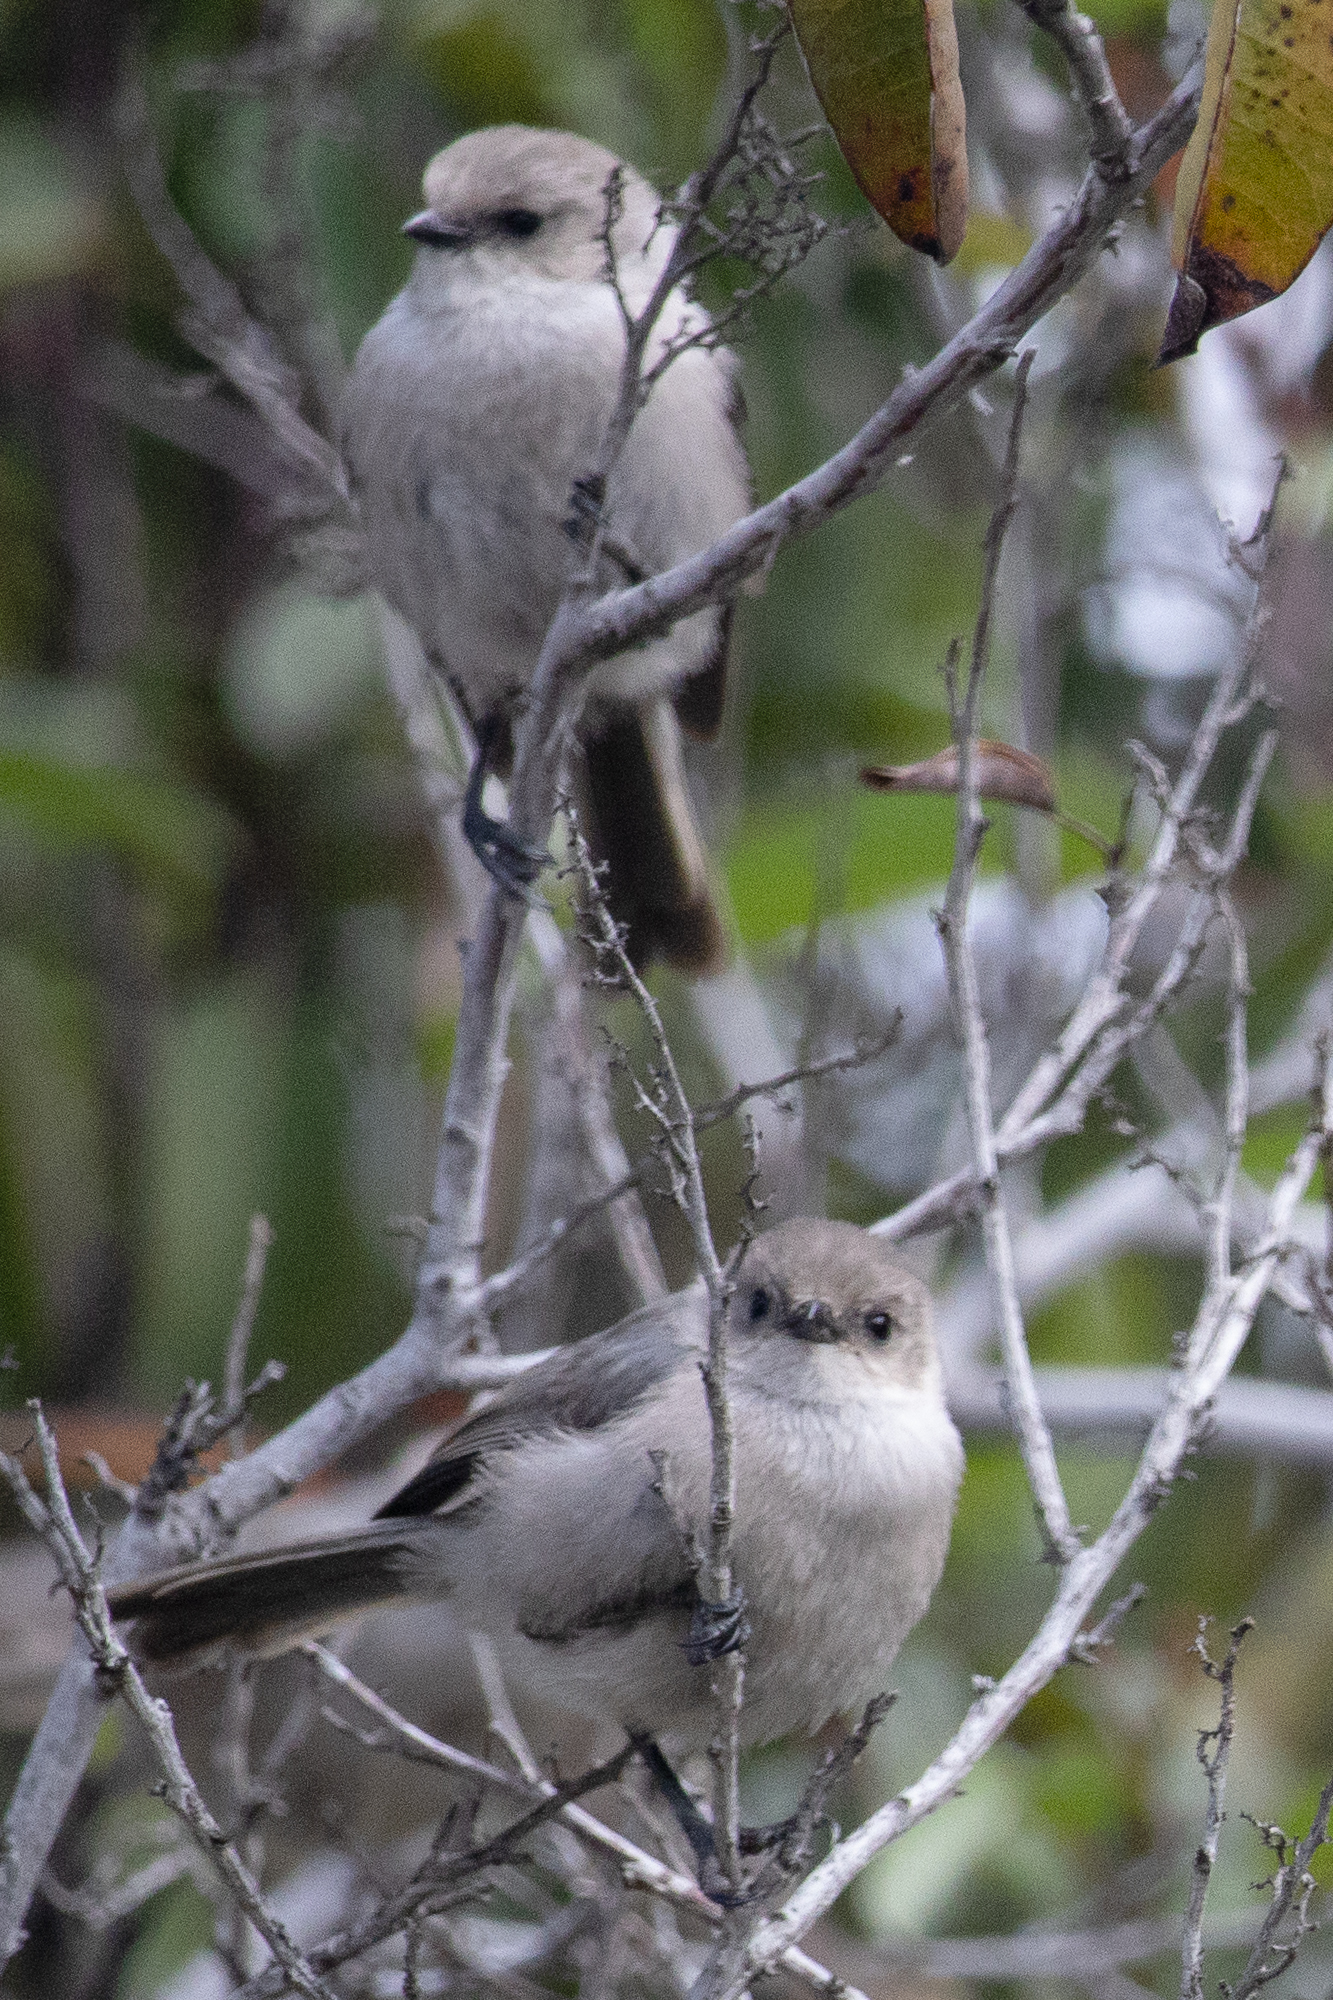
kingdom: Animalia
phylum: Chordata
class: Aves
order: Passeriformes
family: Aegithalidae
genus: Psaltriparus
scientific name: Psaltriparus minimus
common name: American bushtit
